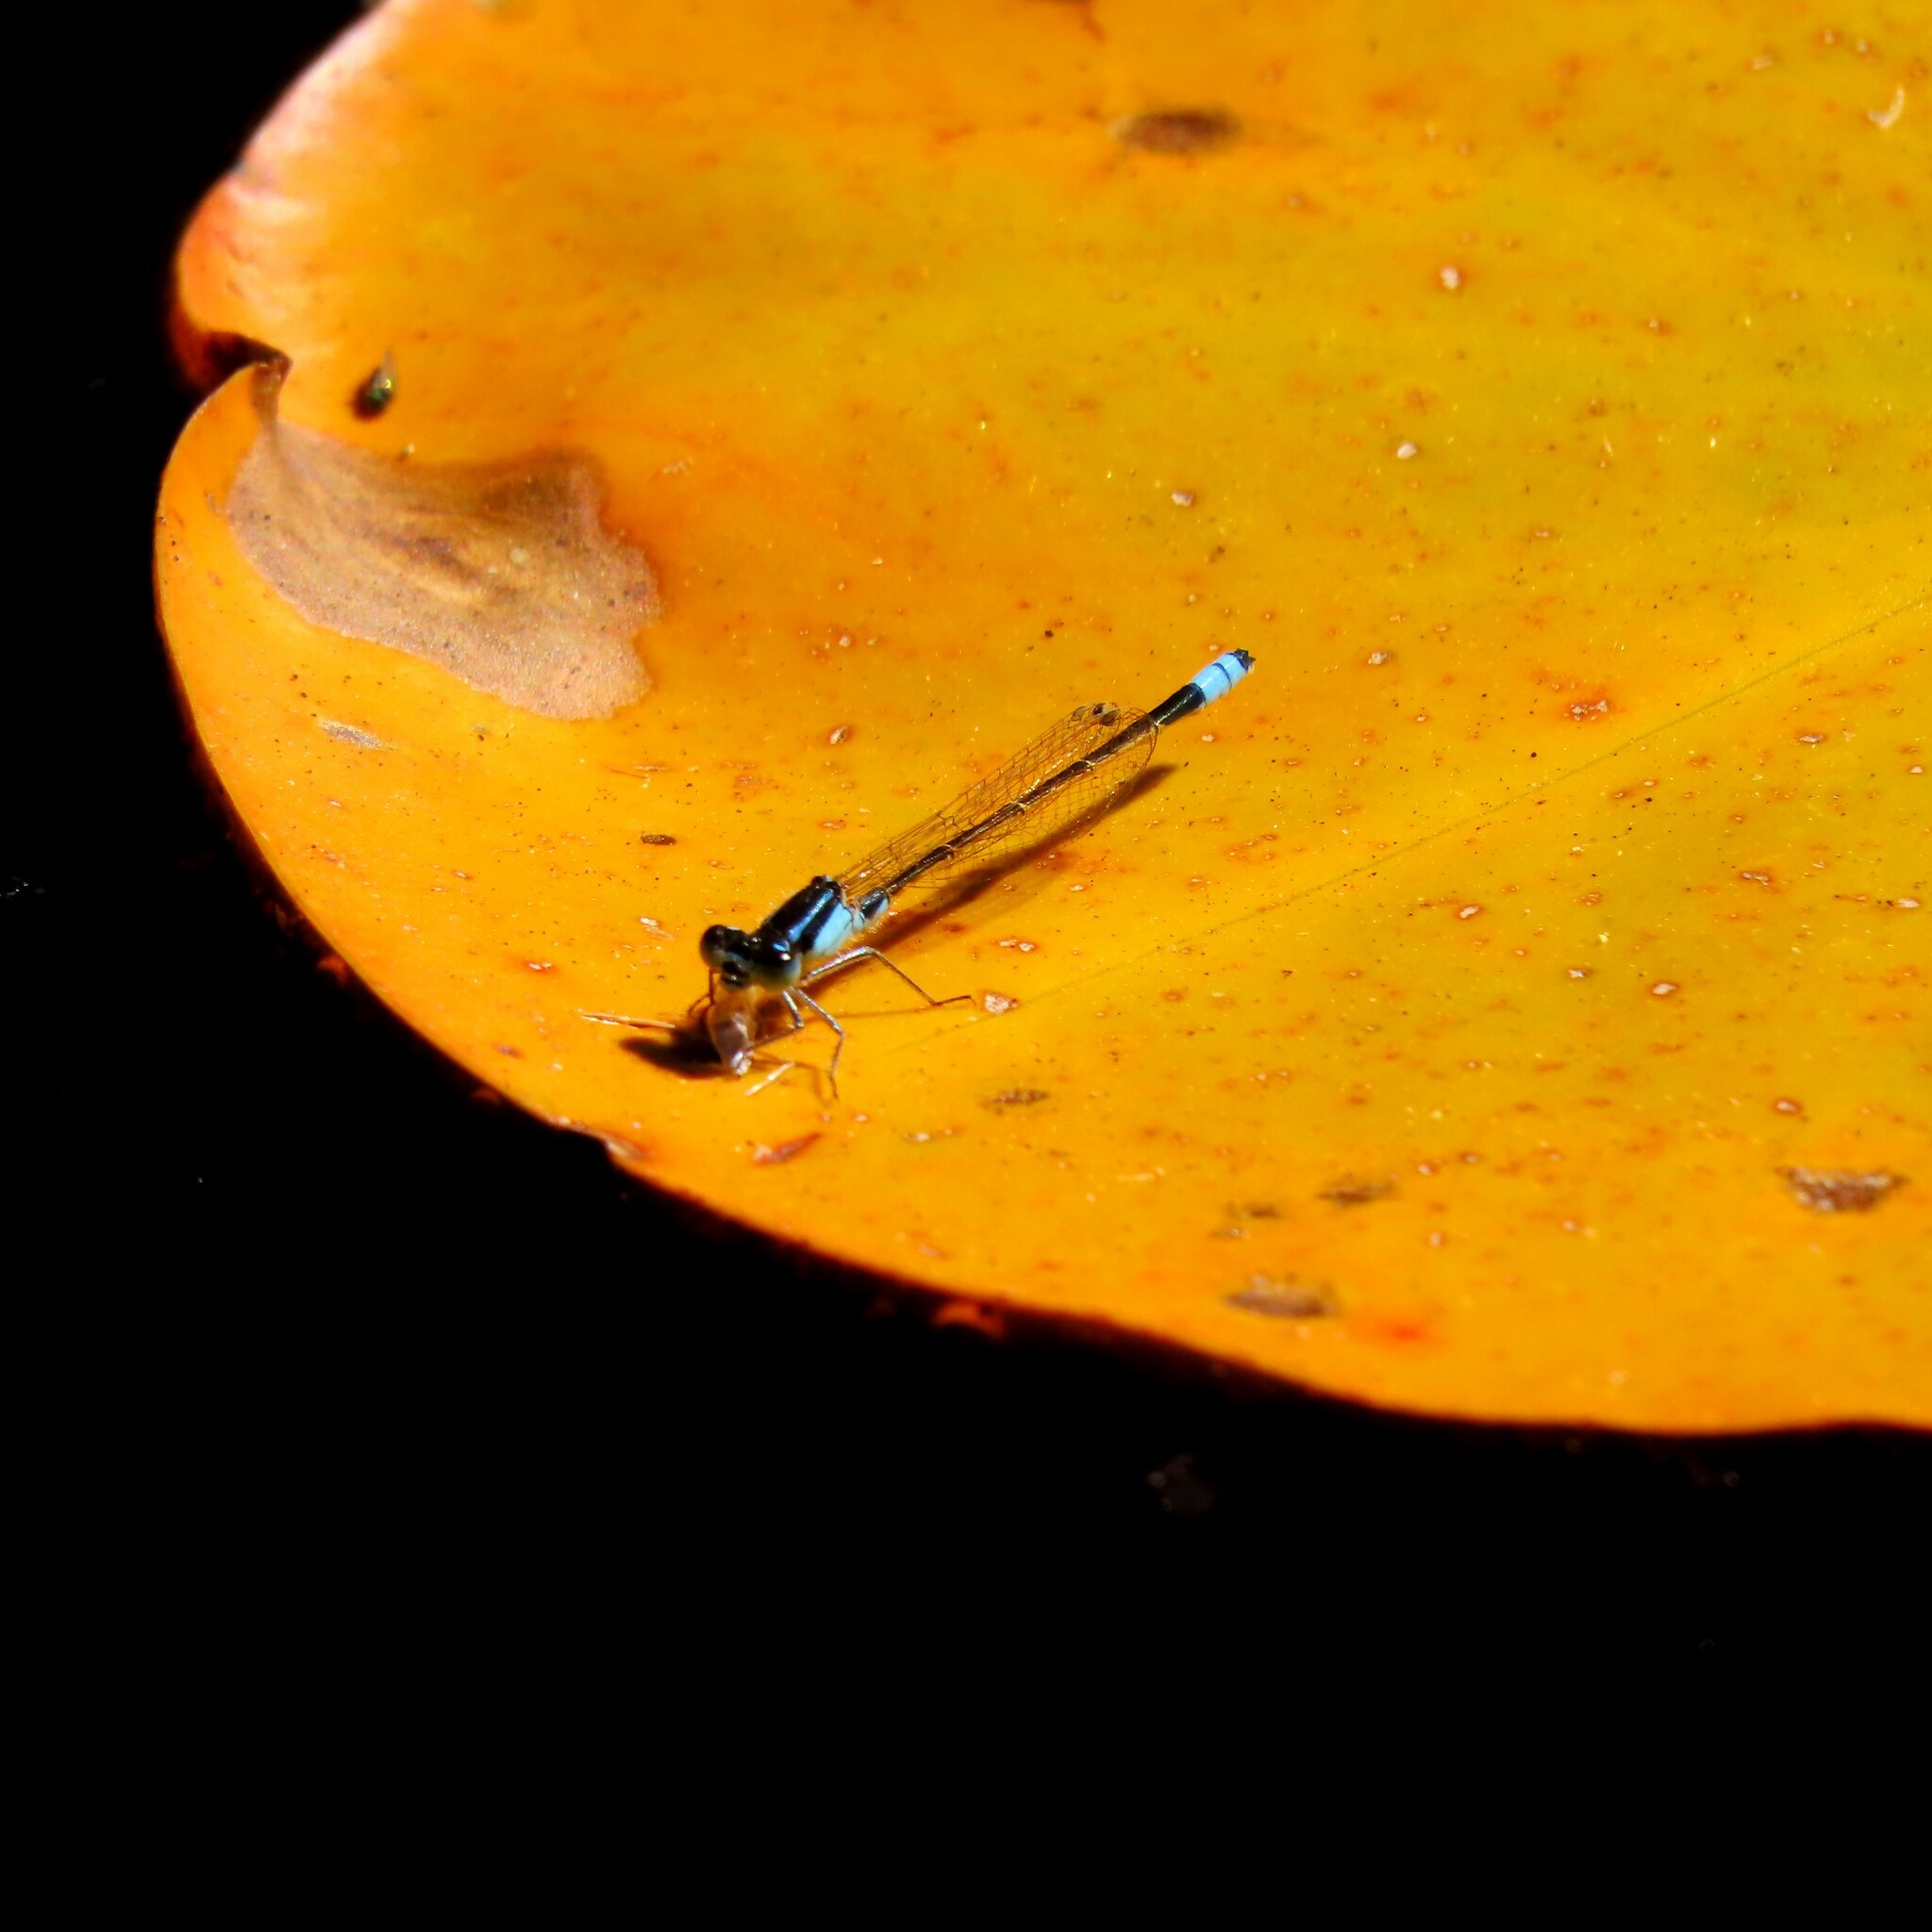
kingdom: Animalia
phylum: Arthropoda
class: Insecta
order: Odonata
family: Coenagrionidae
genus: Ischnura
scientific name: Ischnura heterosticta
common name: Common bluetail
